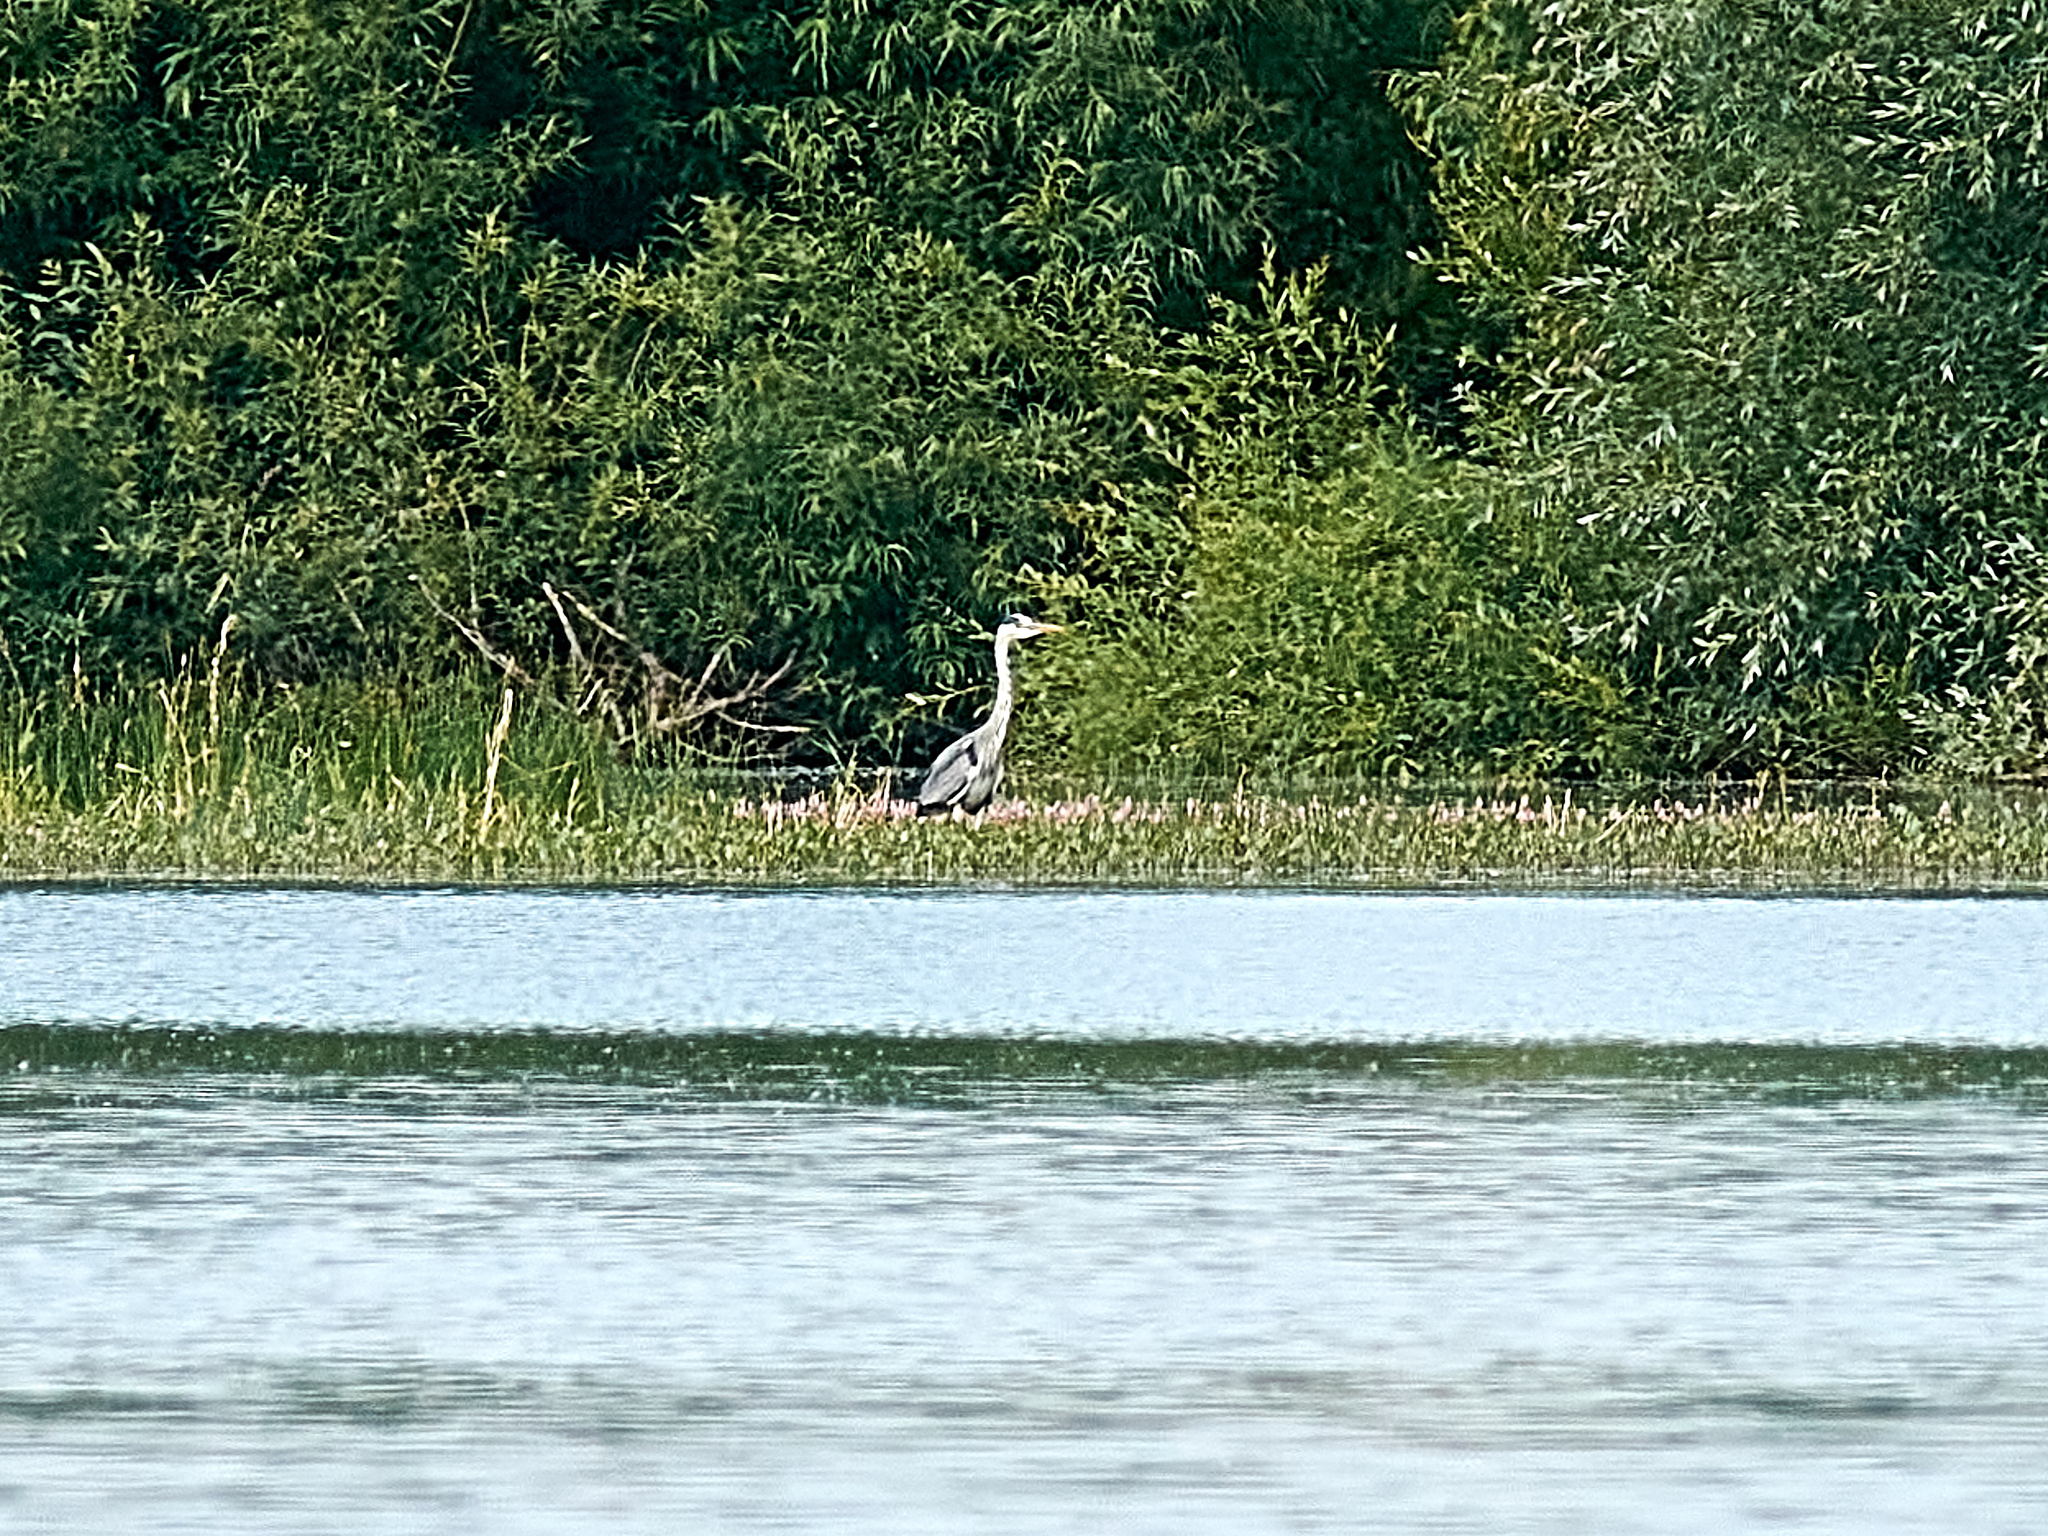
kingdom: Animalia
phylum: Chordata
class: Aves
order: Pelecaniformes
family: Ardeidae
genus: Ardea
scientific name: Ardea cinerea
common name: Grey heron
